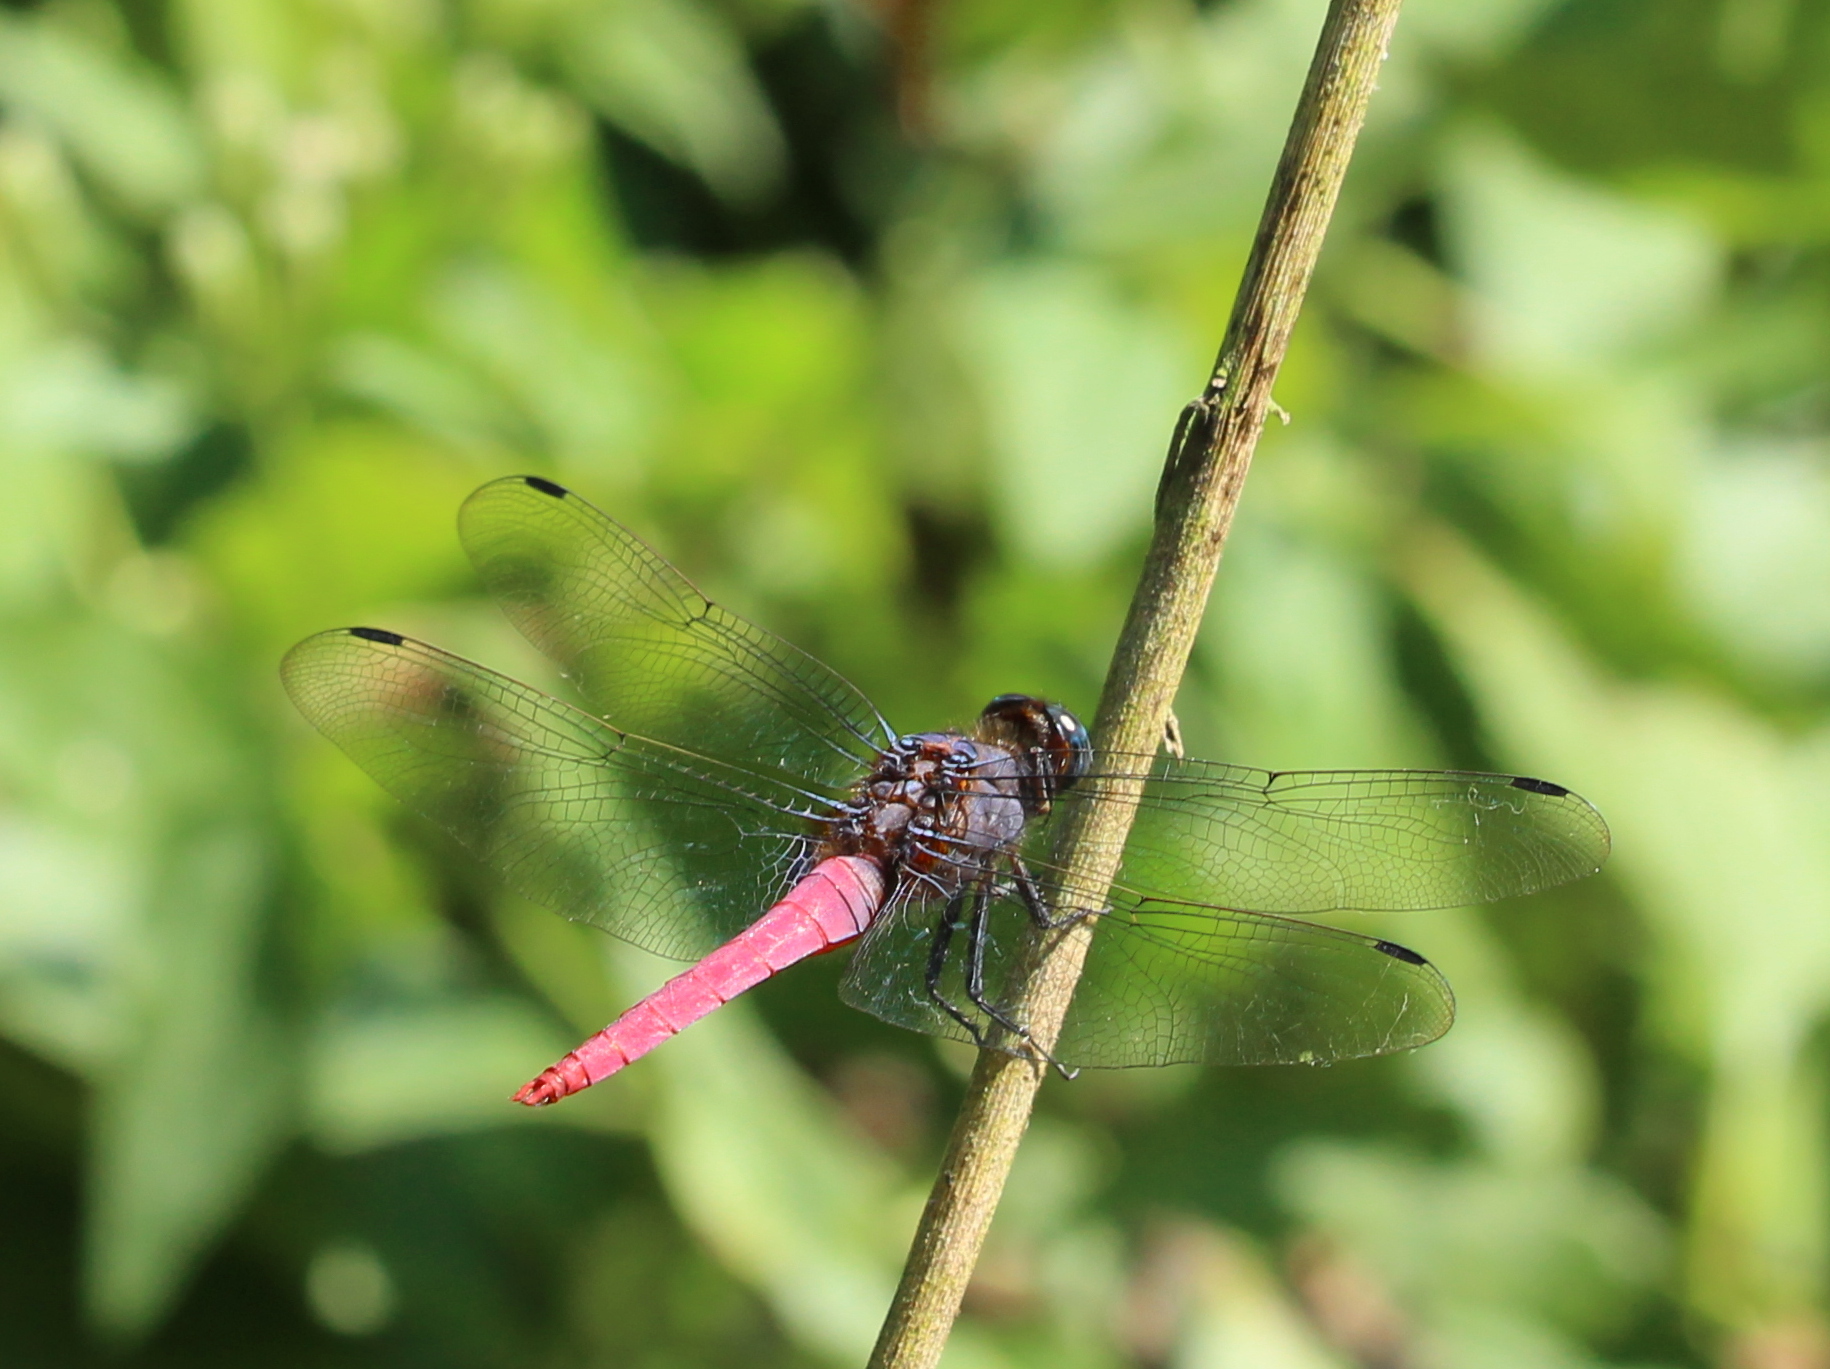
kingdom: Animalia
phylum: Arthropoda
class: Insecta
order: Odonata
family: Libellulidae
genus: Orthetrum
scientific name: Orthetrum pruinosum
